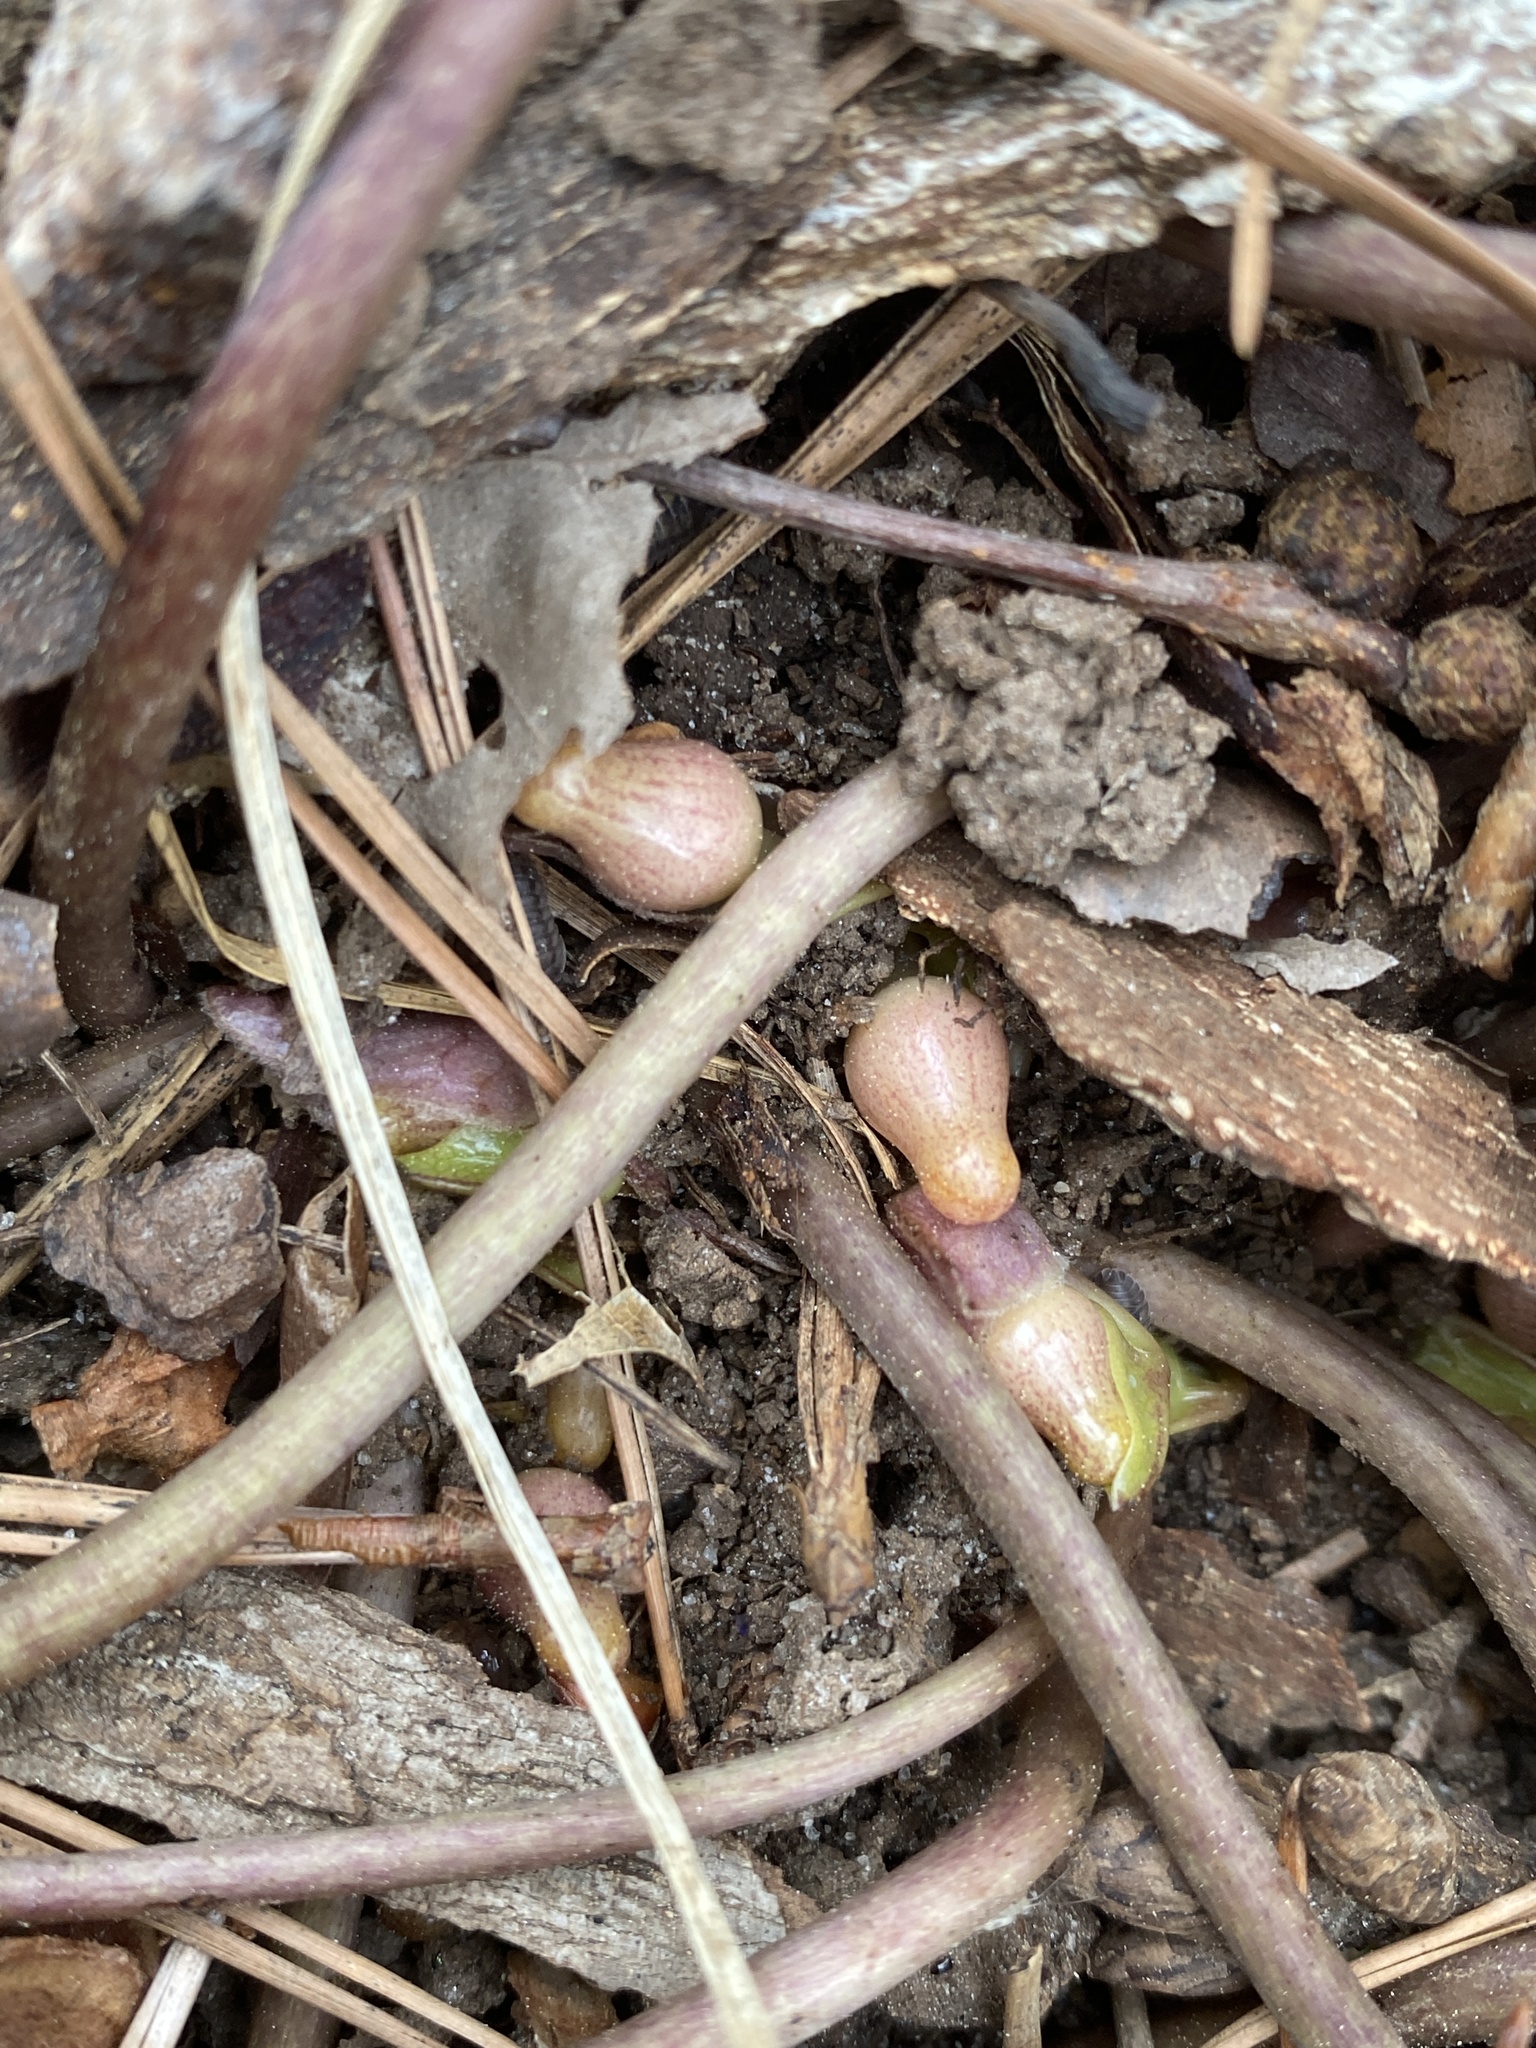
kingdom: Plantae
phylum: Tracheophyta
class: Magnoliopsida
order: Piperales
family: Aristolochiaceae
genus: Hexastylis
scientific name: Hexastylis arifolia
